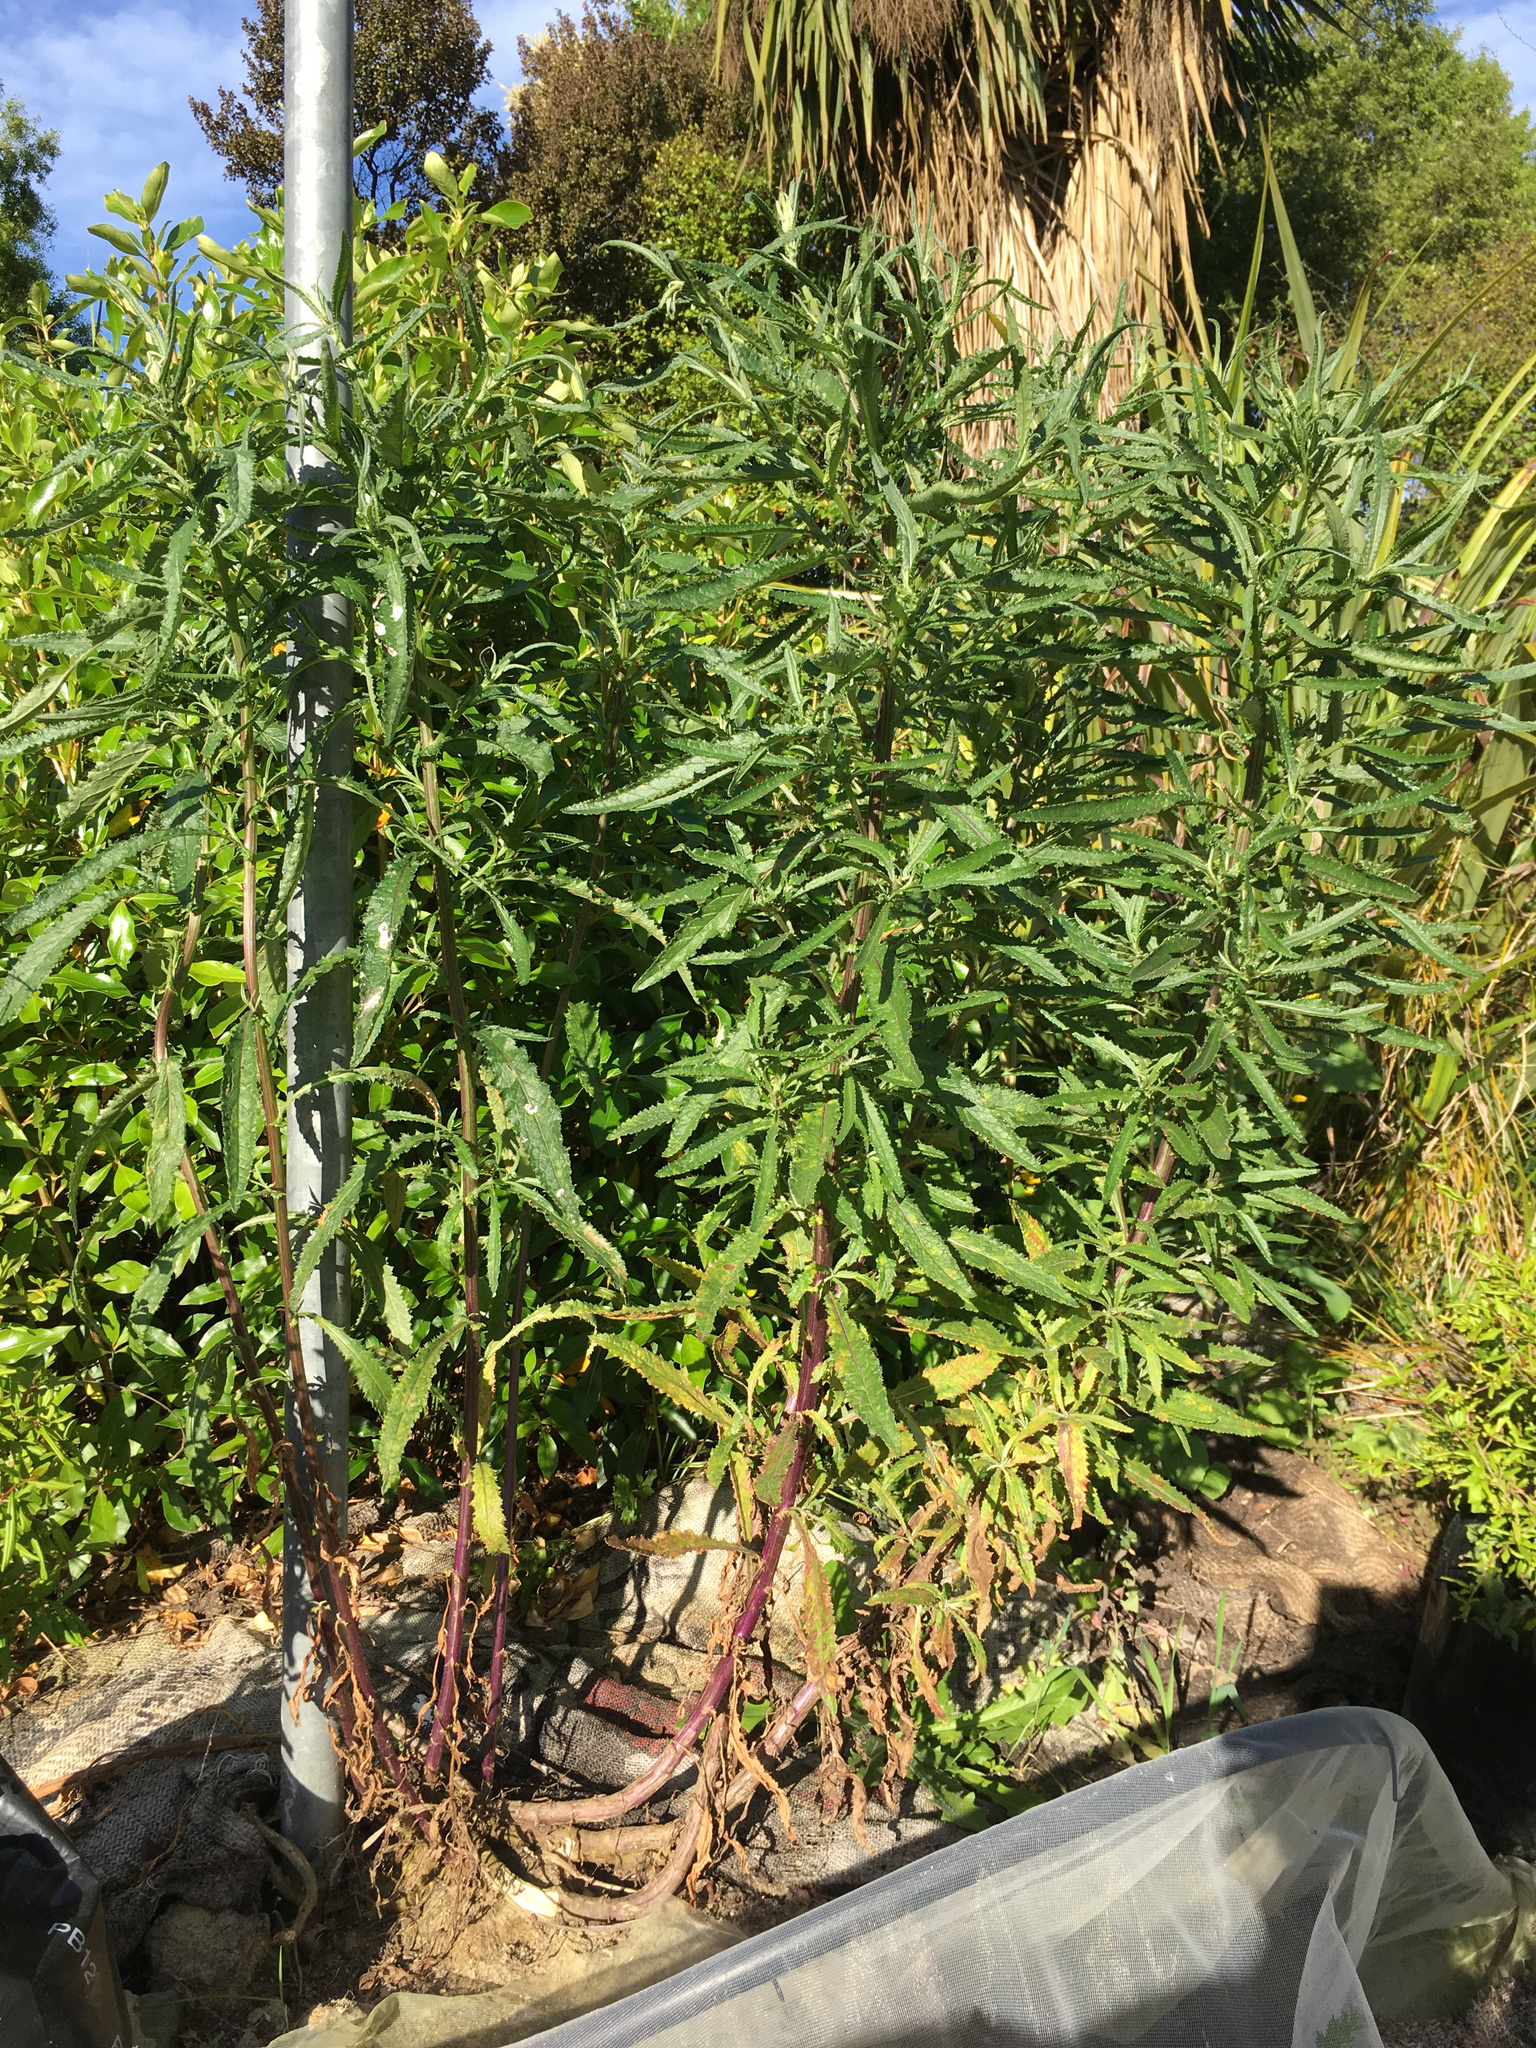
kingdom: Plantae
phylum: Tracheophyta
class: Magnoliopsida
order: Asterales
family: Asteraceae
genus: Senecio
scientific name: Senecio minimus
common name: Toothed fireweed
